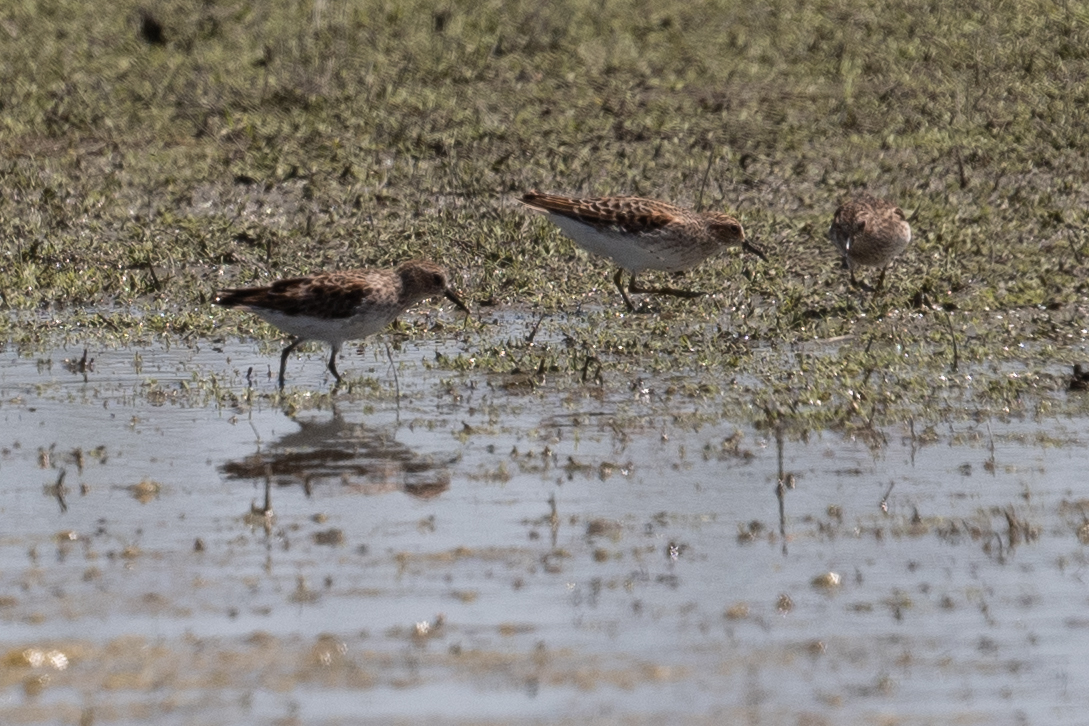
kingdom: Animalia
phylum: Chordata
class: Aves
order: Charadriiformes
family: Scolopacidae
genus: Calidris
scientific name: Calidris minutilla
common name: Least sandpiper
